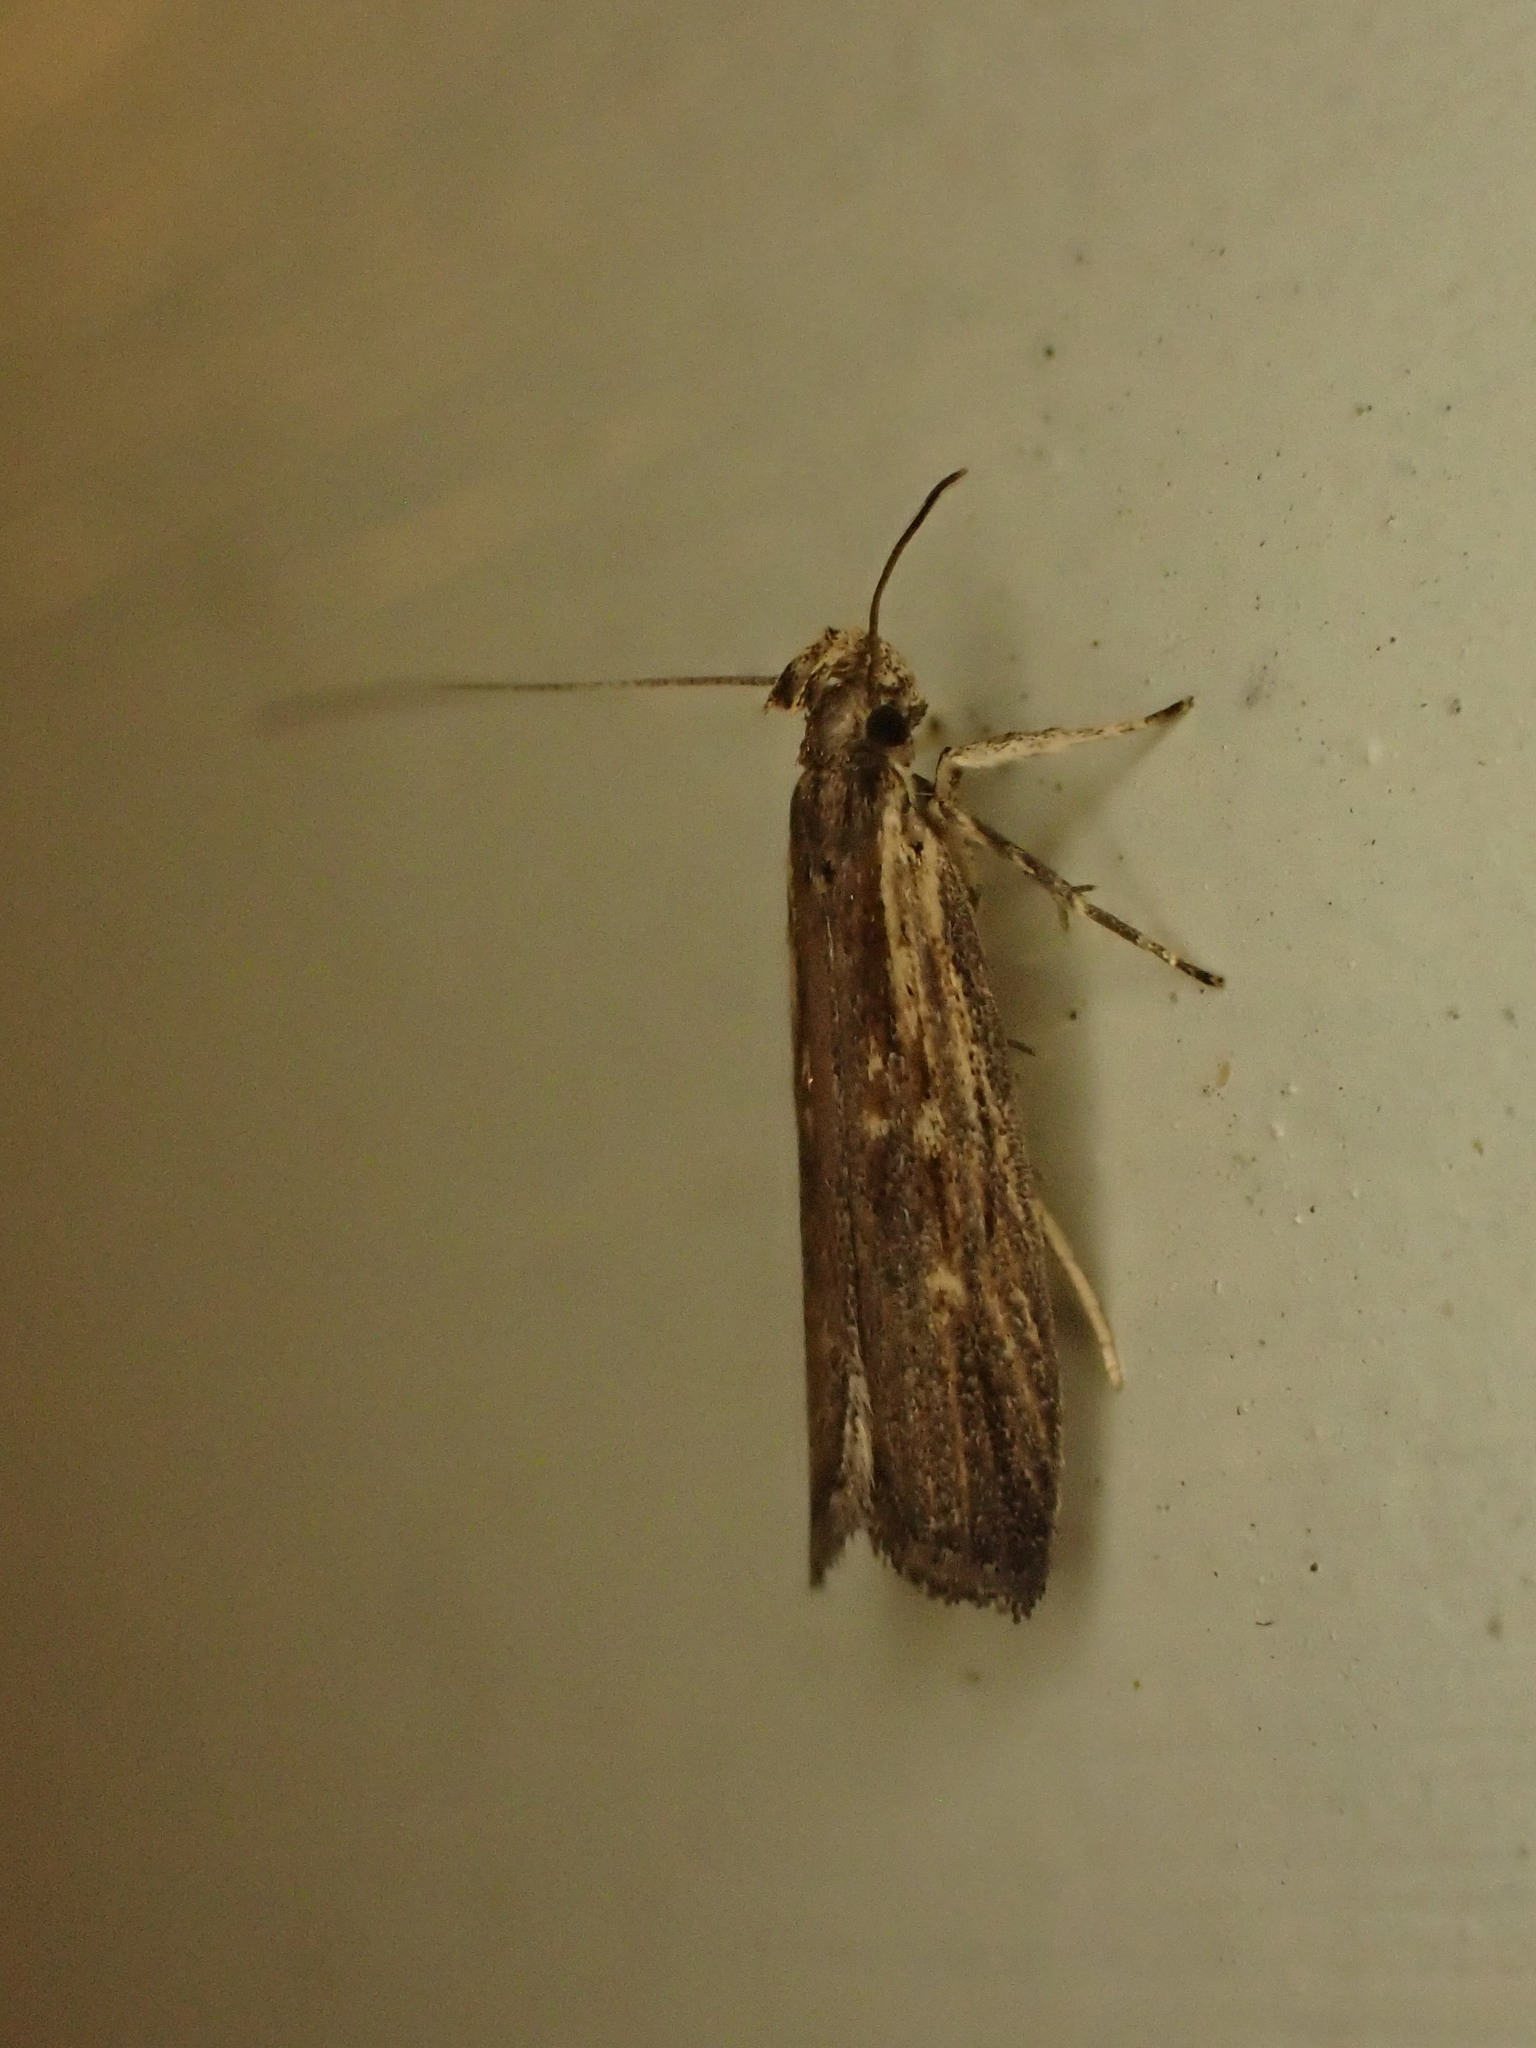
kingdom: Animalia
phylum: Arthropoda
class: Insecta
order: Lepidoptera
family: Gelechiidae
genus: Helcystogramma
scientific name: Helcystogramma phryganitis
